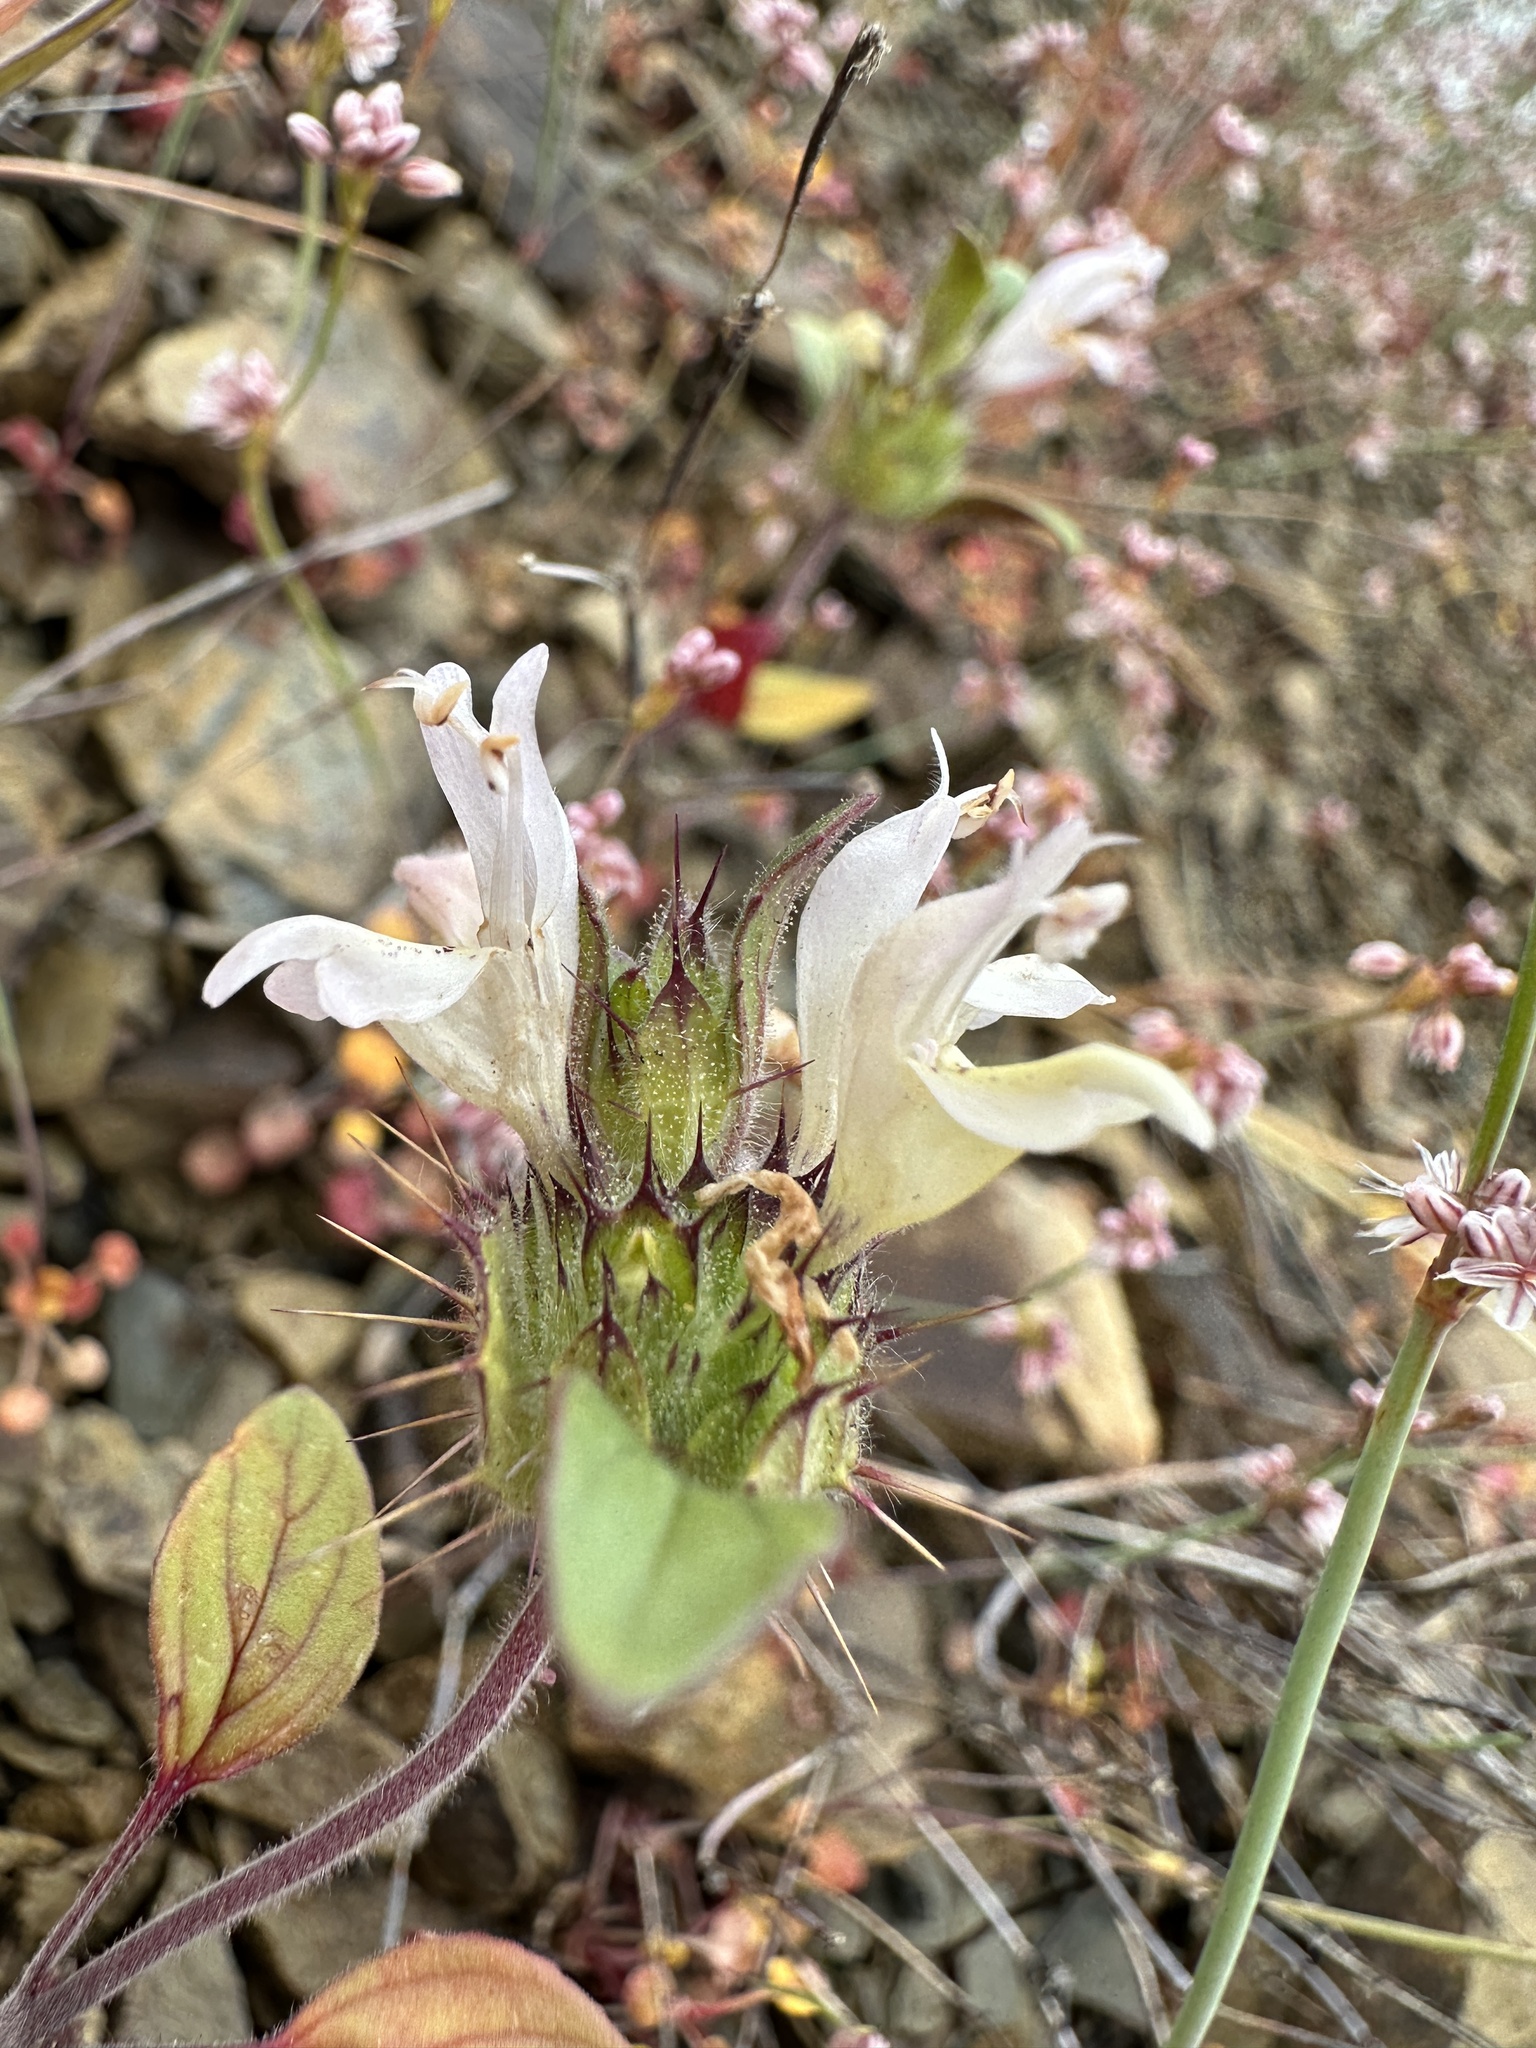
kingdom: Plantae
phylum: Tracheophyta
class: Magnoliopsida
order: Lamiales
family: Lamiaceae
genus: Acanthomintha
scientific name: Acanthomintha lanceolata
